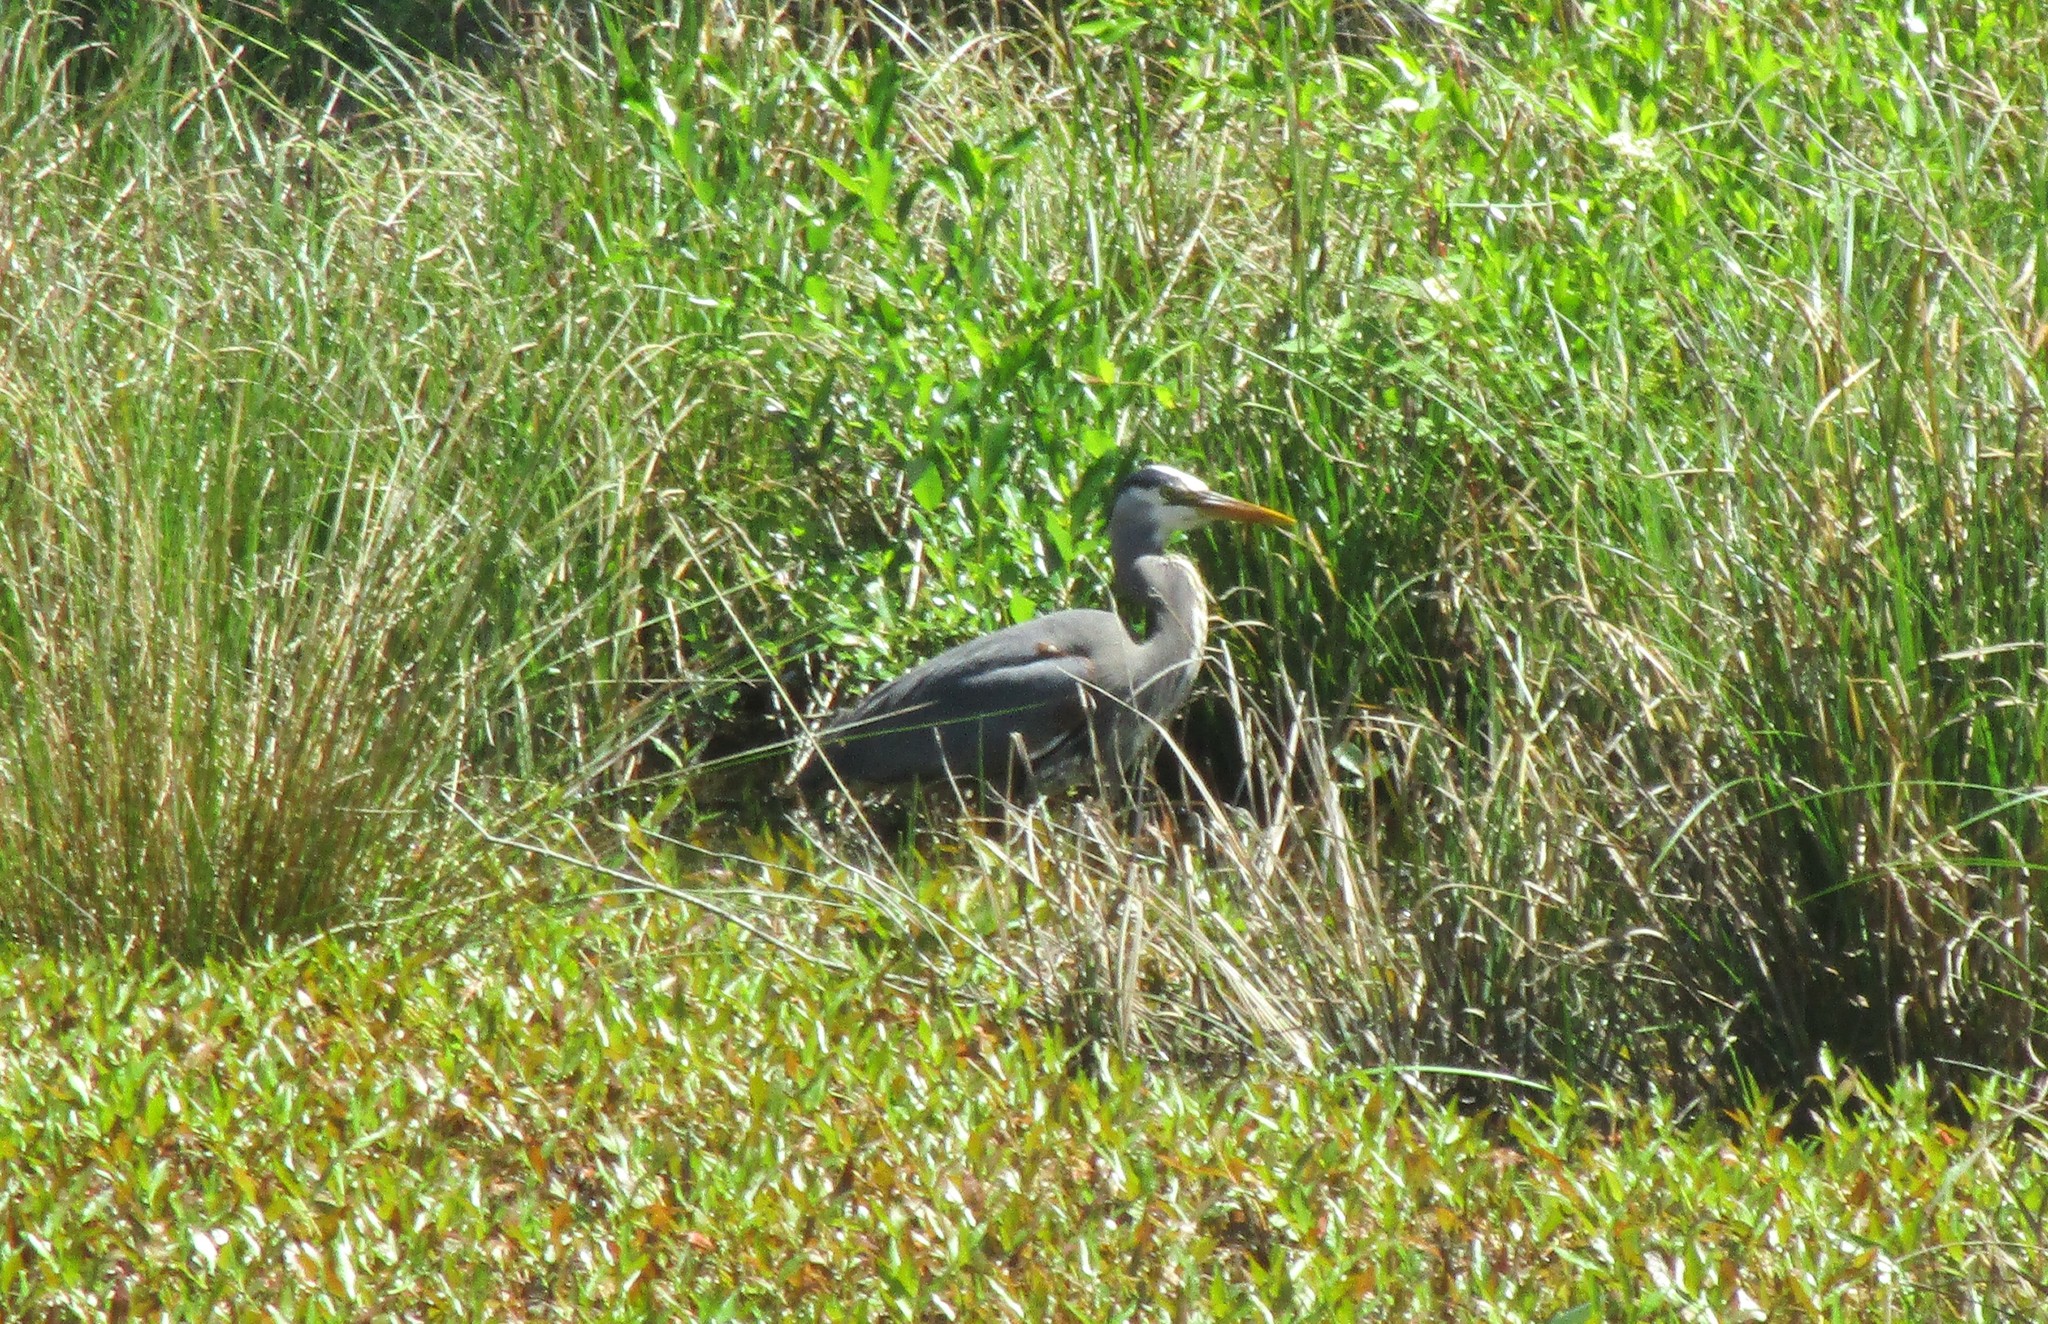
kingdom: Animalia
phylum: Chordata
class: Aves
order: Pelecaniformes
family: Ardeidae
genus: Ardea
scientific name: Ardea herodias
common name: Great blue heron
